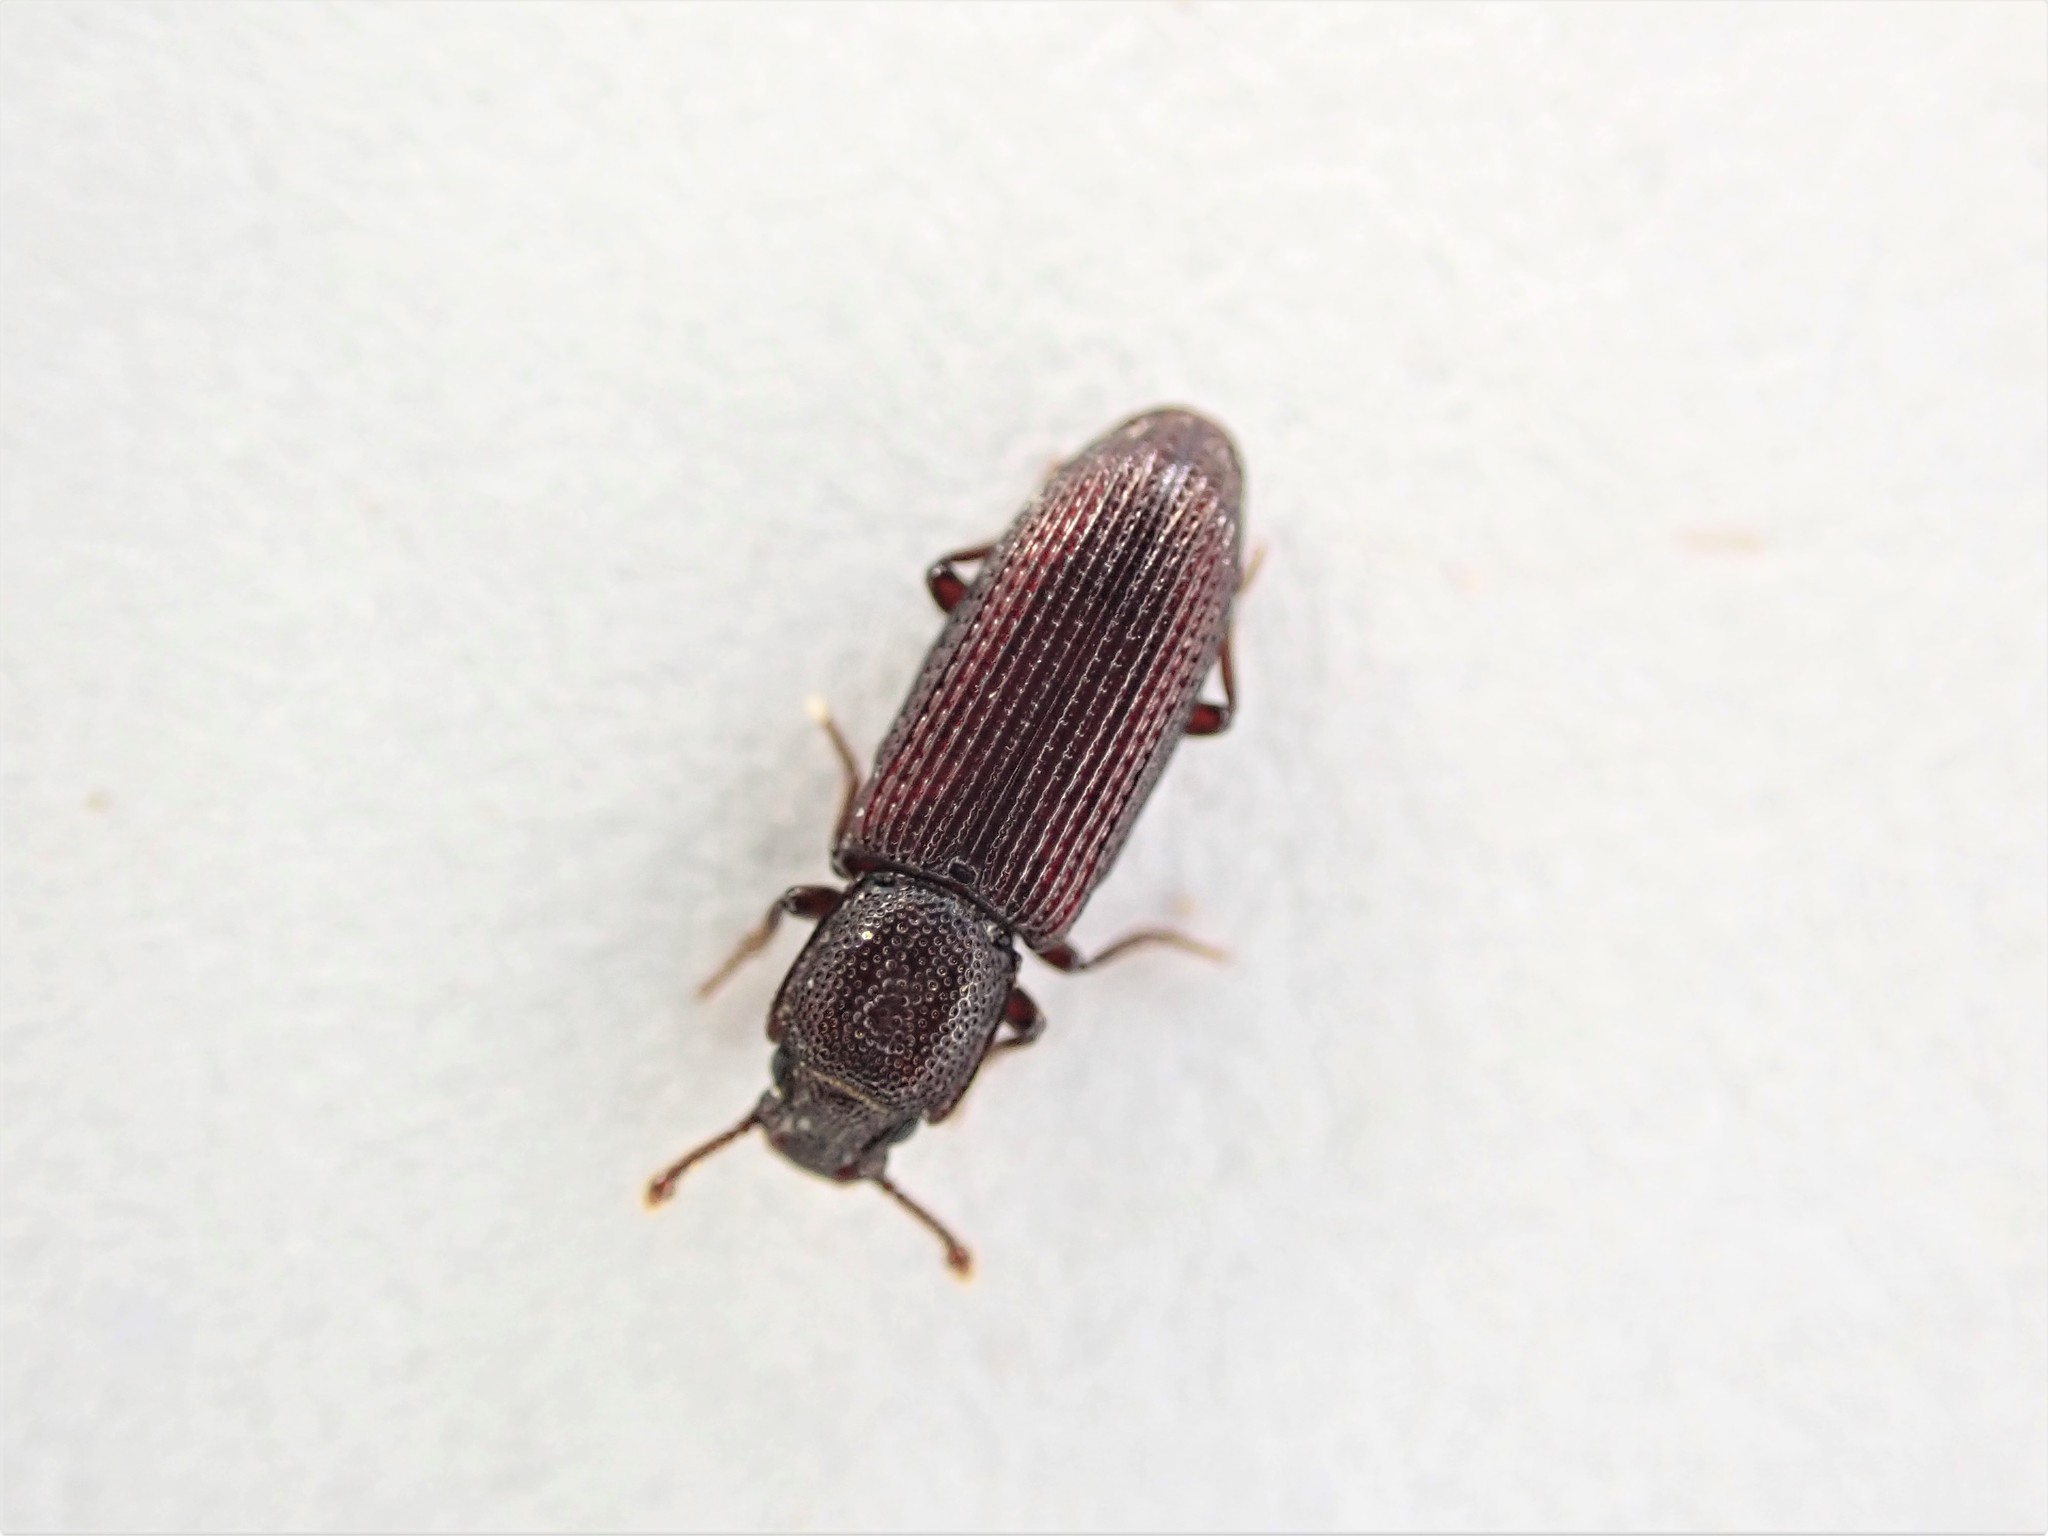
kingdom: Animalia
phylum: Arthropoda
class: Insecta
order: Coleoptera
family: Zopheridae
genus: Pycnomerus
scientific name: Pycnomerus
